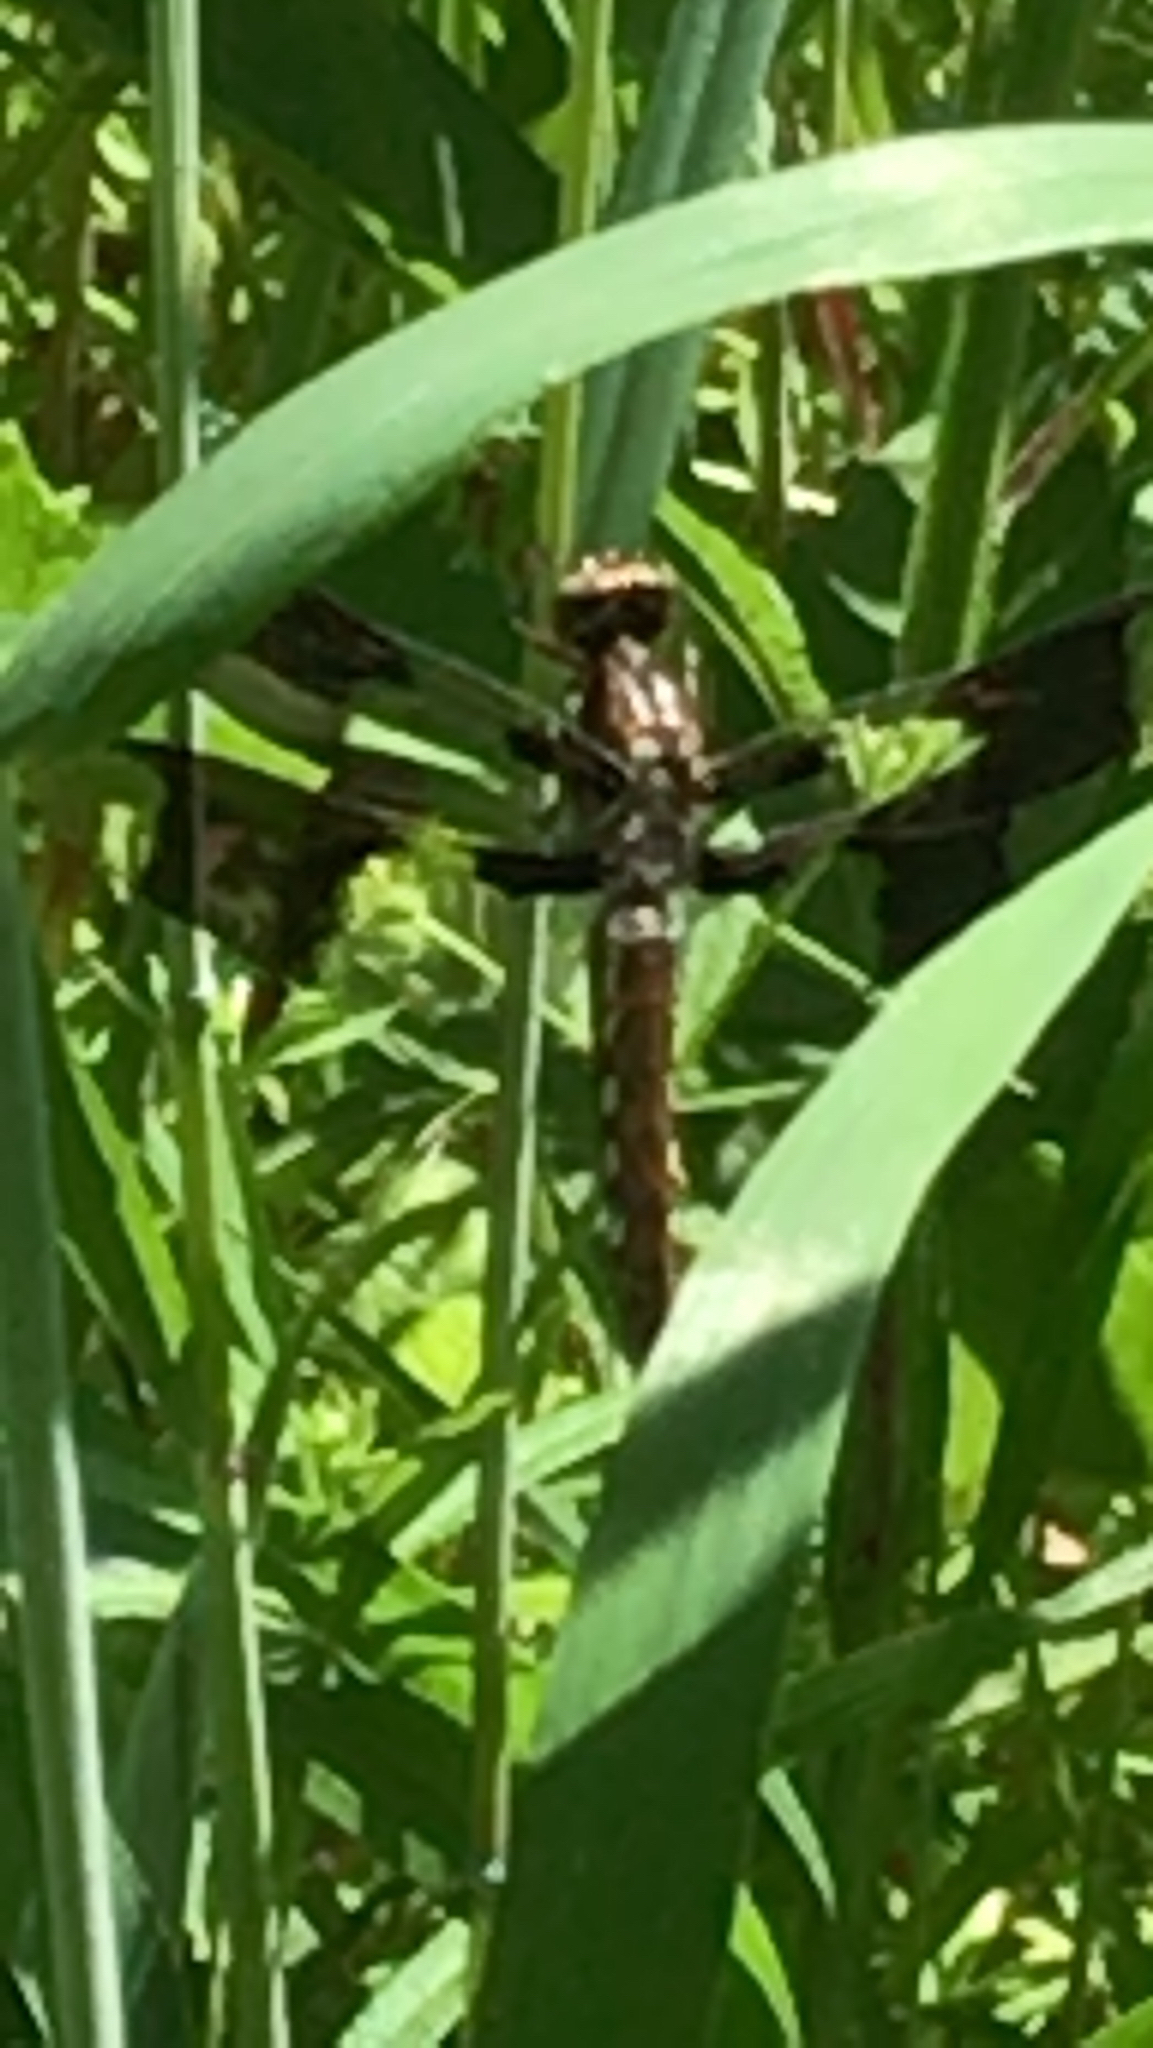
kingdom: Animalia
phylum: Arthropoda
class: Insecta
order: Odonata
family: Libellulidae
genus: Plathemis
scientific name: Plathemis lydia
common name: Common whitetail
